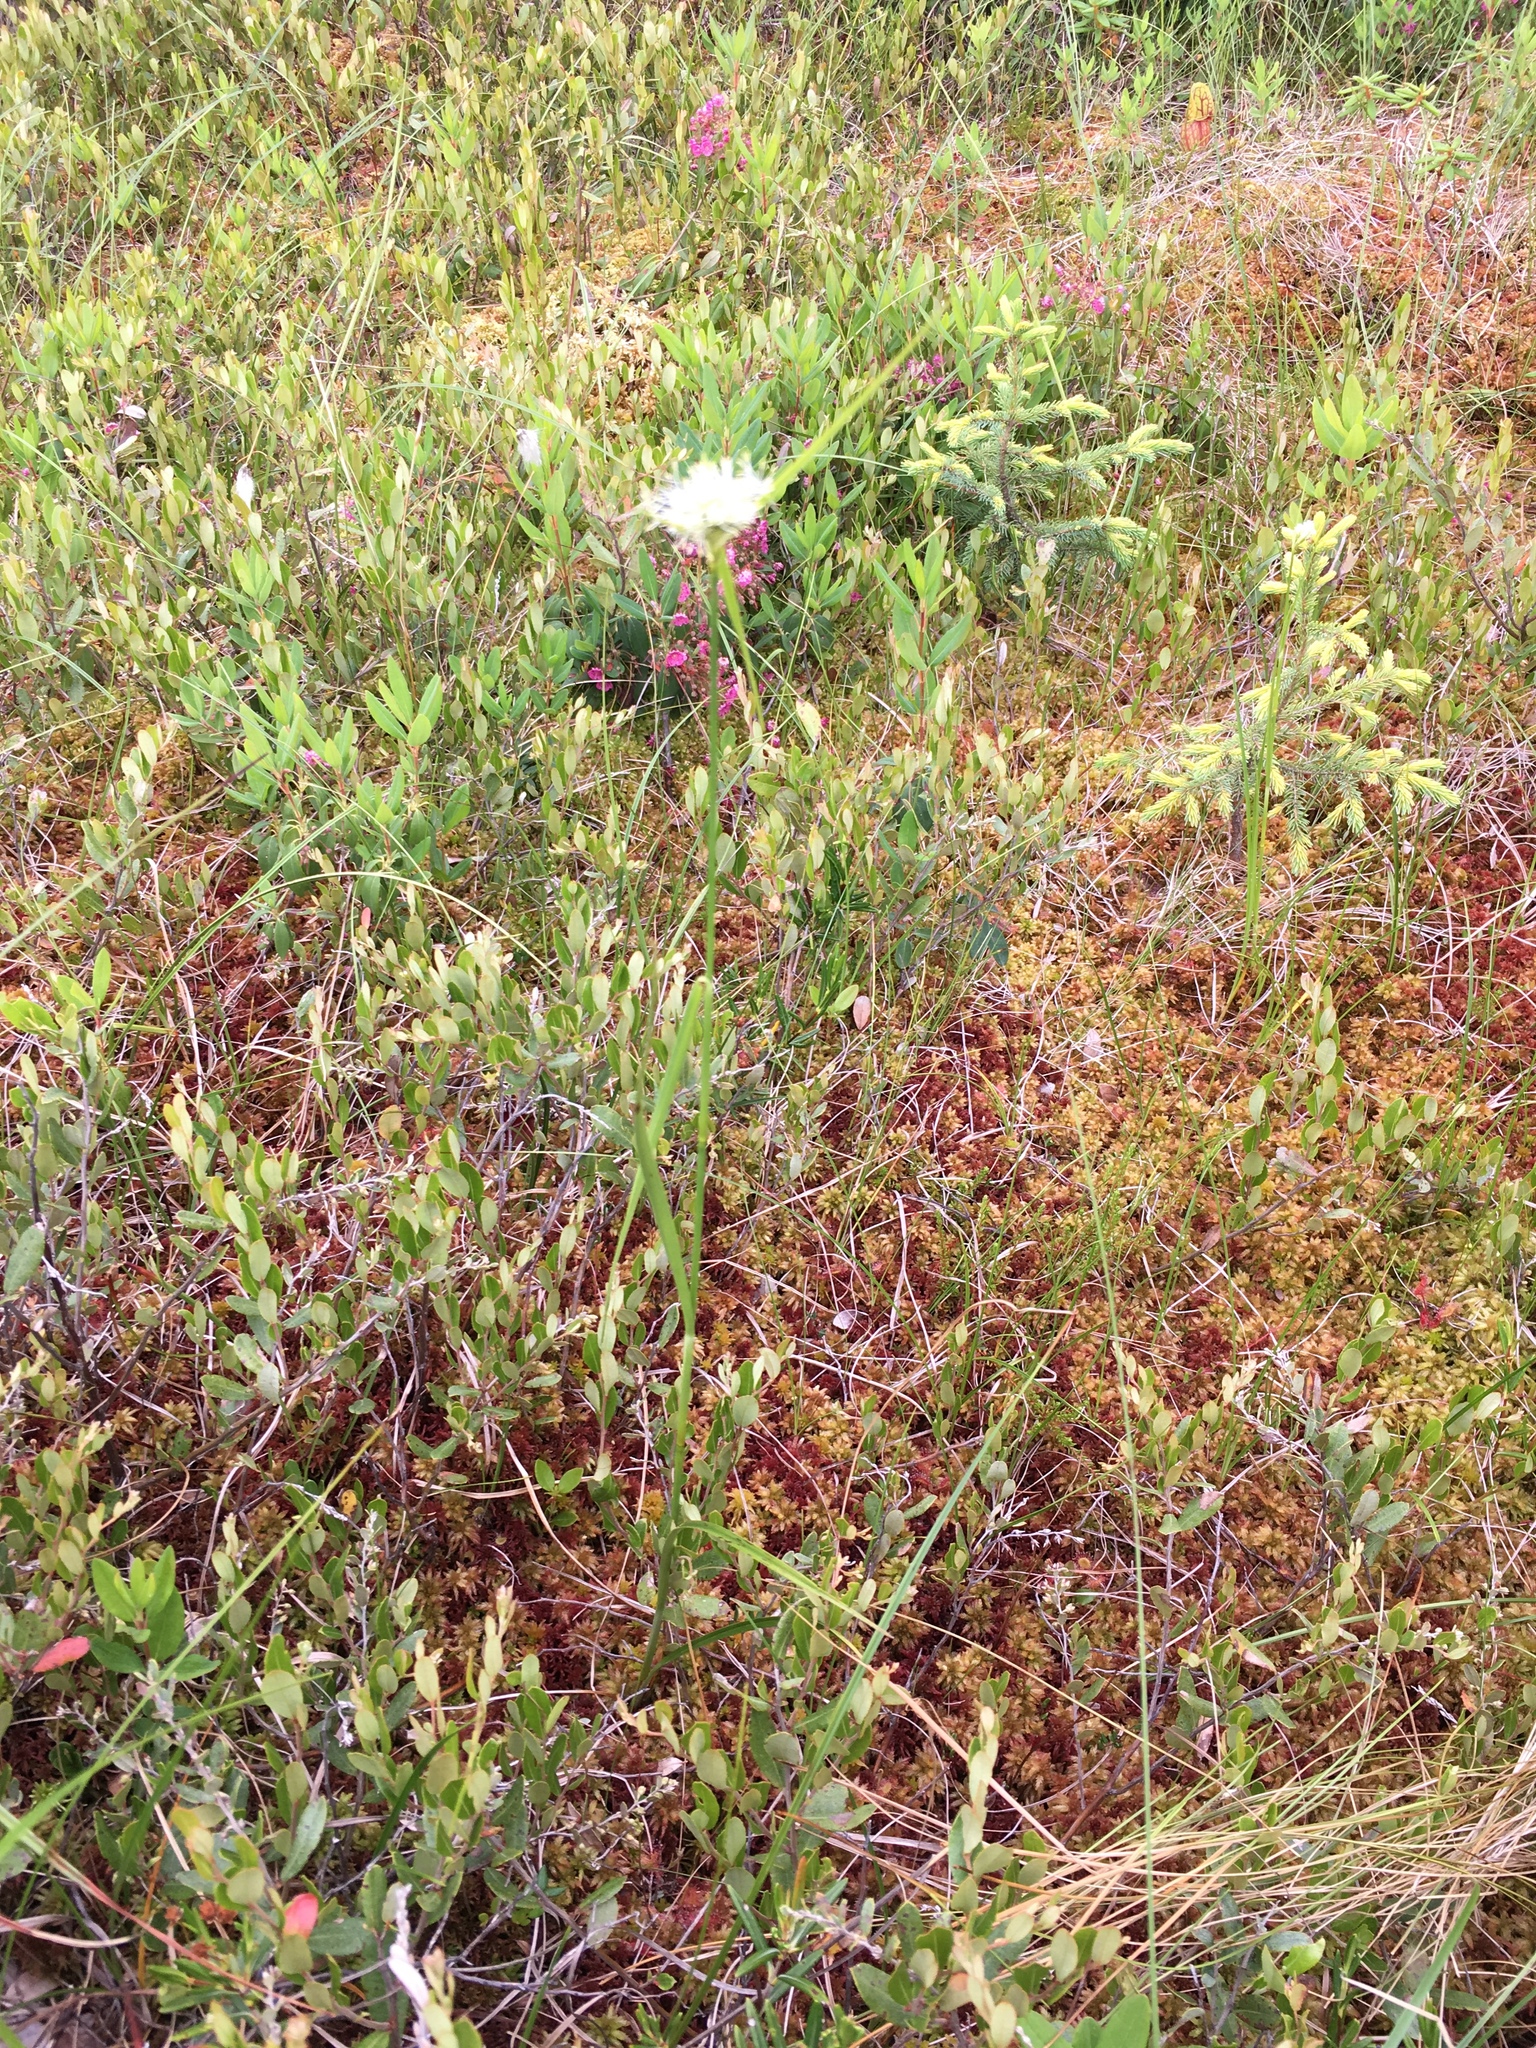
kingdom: Plantae
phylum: Tracheophyta
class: Liliopsida
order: Poales
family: Cyperaceae
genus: Eriophorum
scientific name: Eriophorum virginicum
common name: Tawny cottongrass
